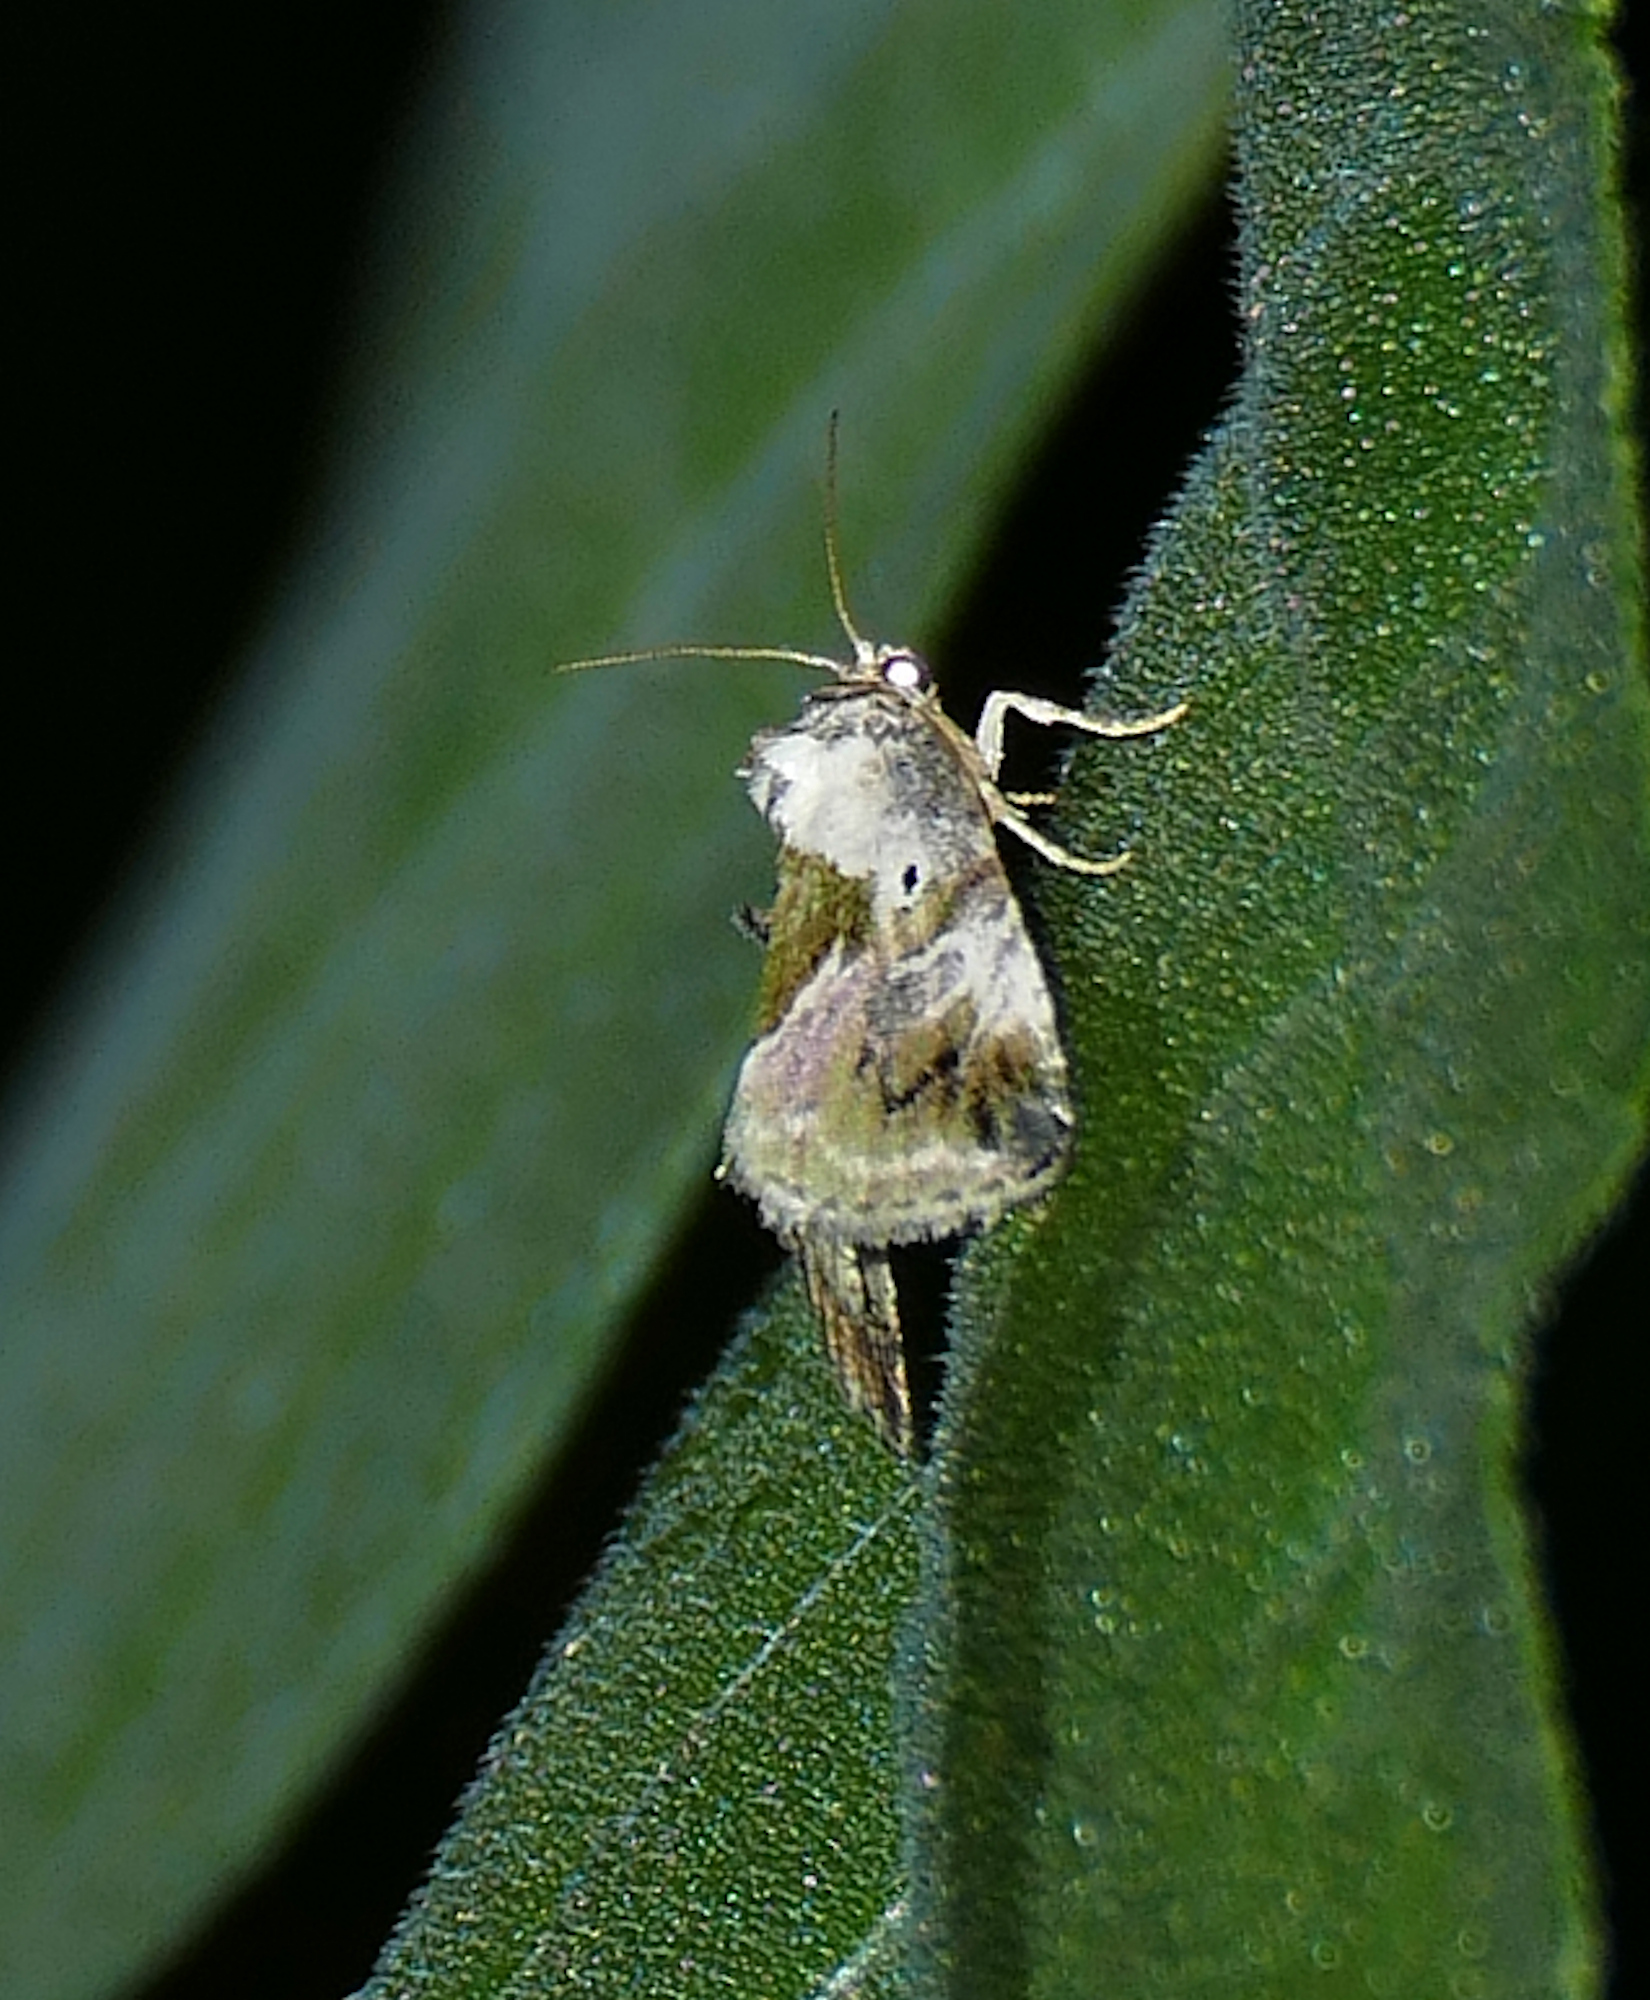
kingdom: Animalia
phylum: Arthropoda
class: Insecta
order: Lepidoptera
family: Noctuidae
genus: Maliattha
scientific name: Maliattha synochitis
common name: Black-dotted glyph
